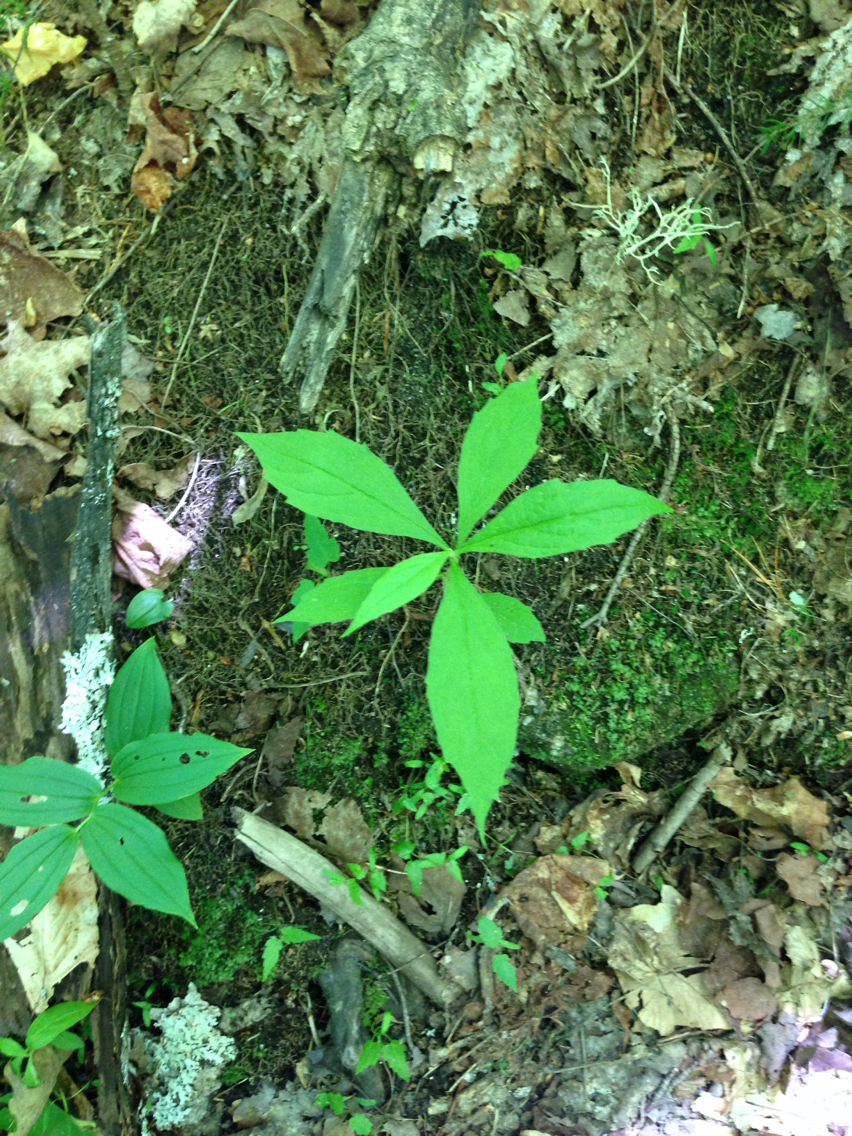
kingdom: Plantae
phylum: Tracheophyta
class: Magnoliopsida
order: Asterales
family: Asteraceae
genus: Oclemena
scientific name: Oclemena acuminata
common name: Mountain aster
